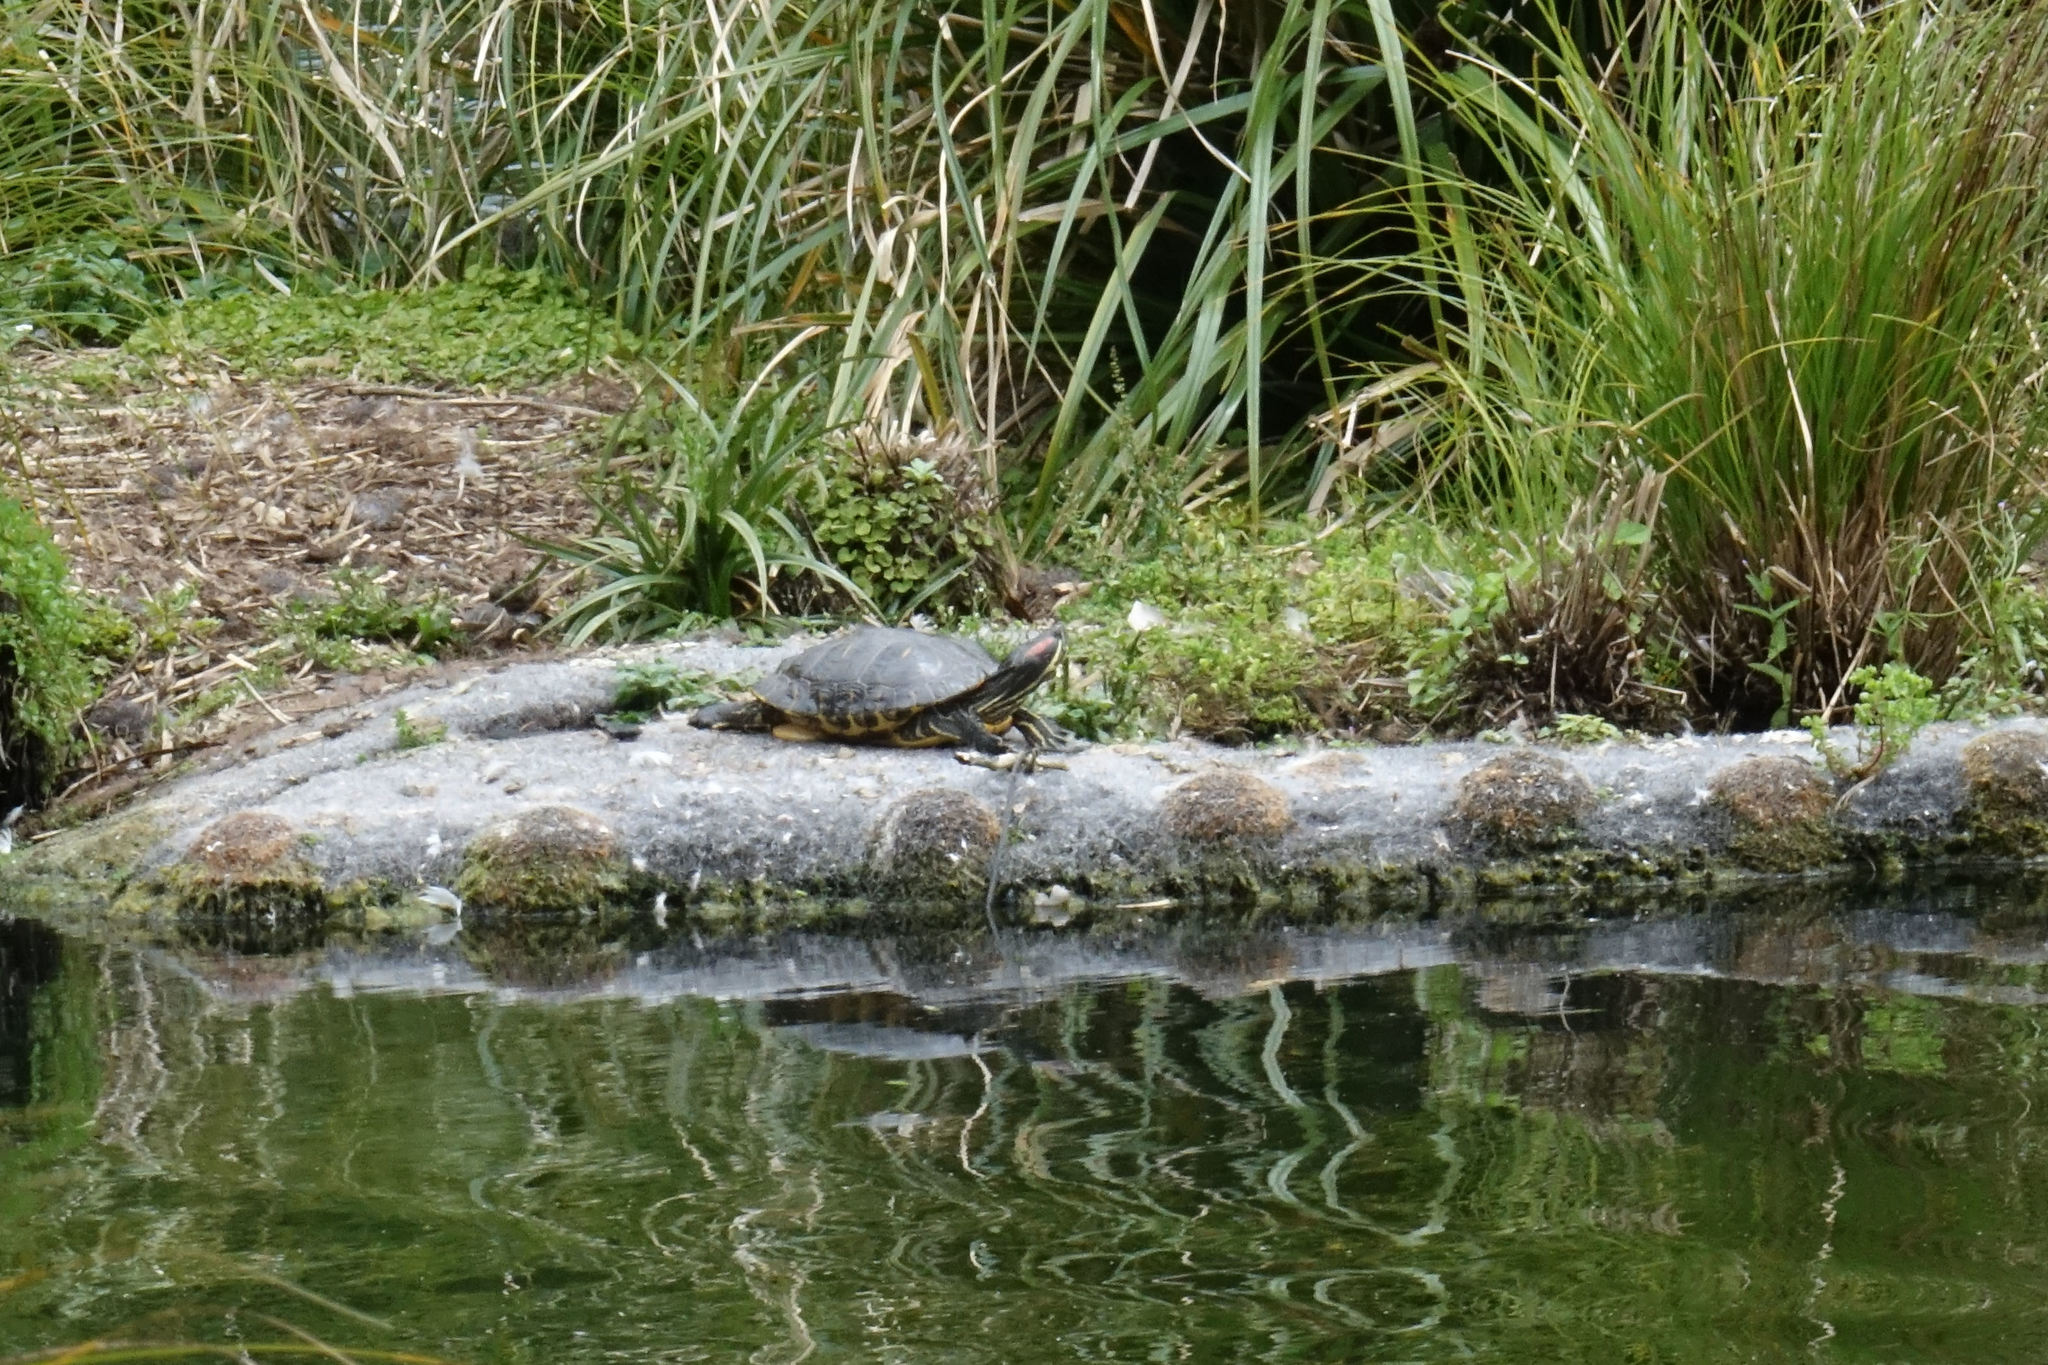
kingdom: Animalia
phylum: Chordata
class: Testudines
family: Emydidae
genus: Trachemys
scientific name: Trachemys scripta
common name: Slider
